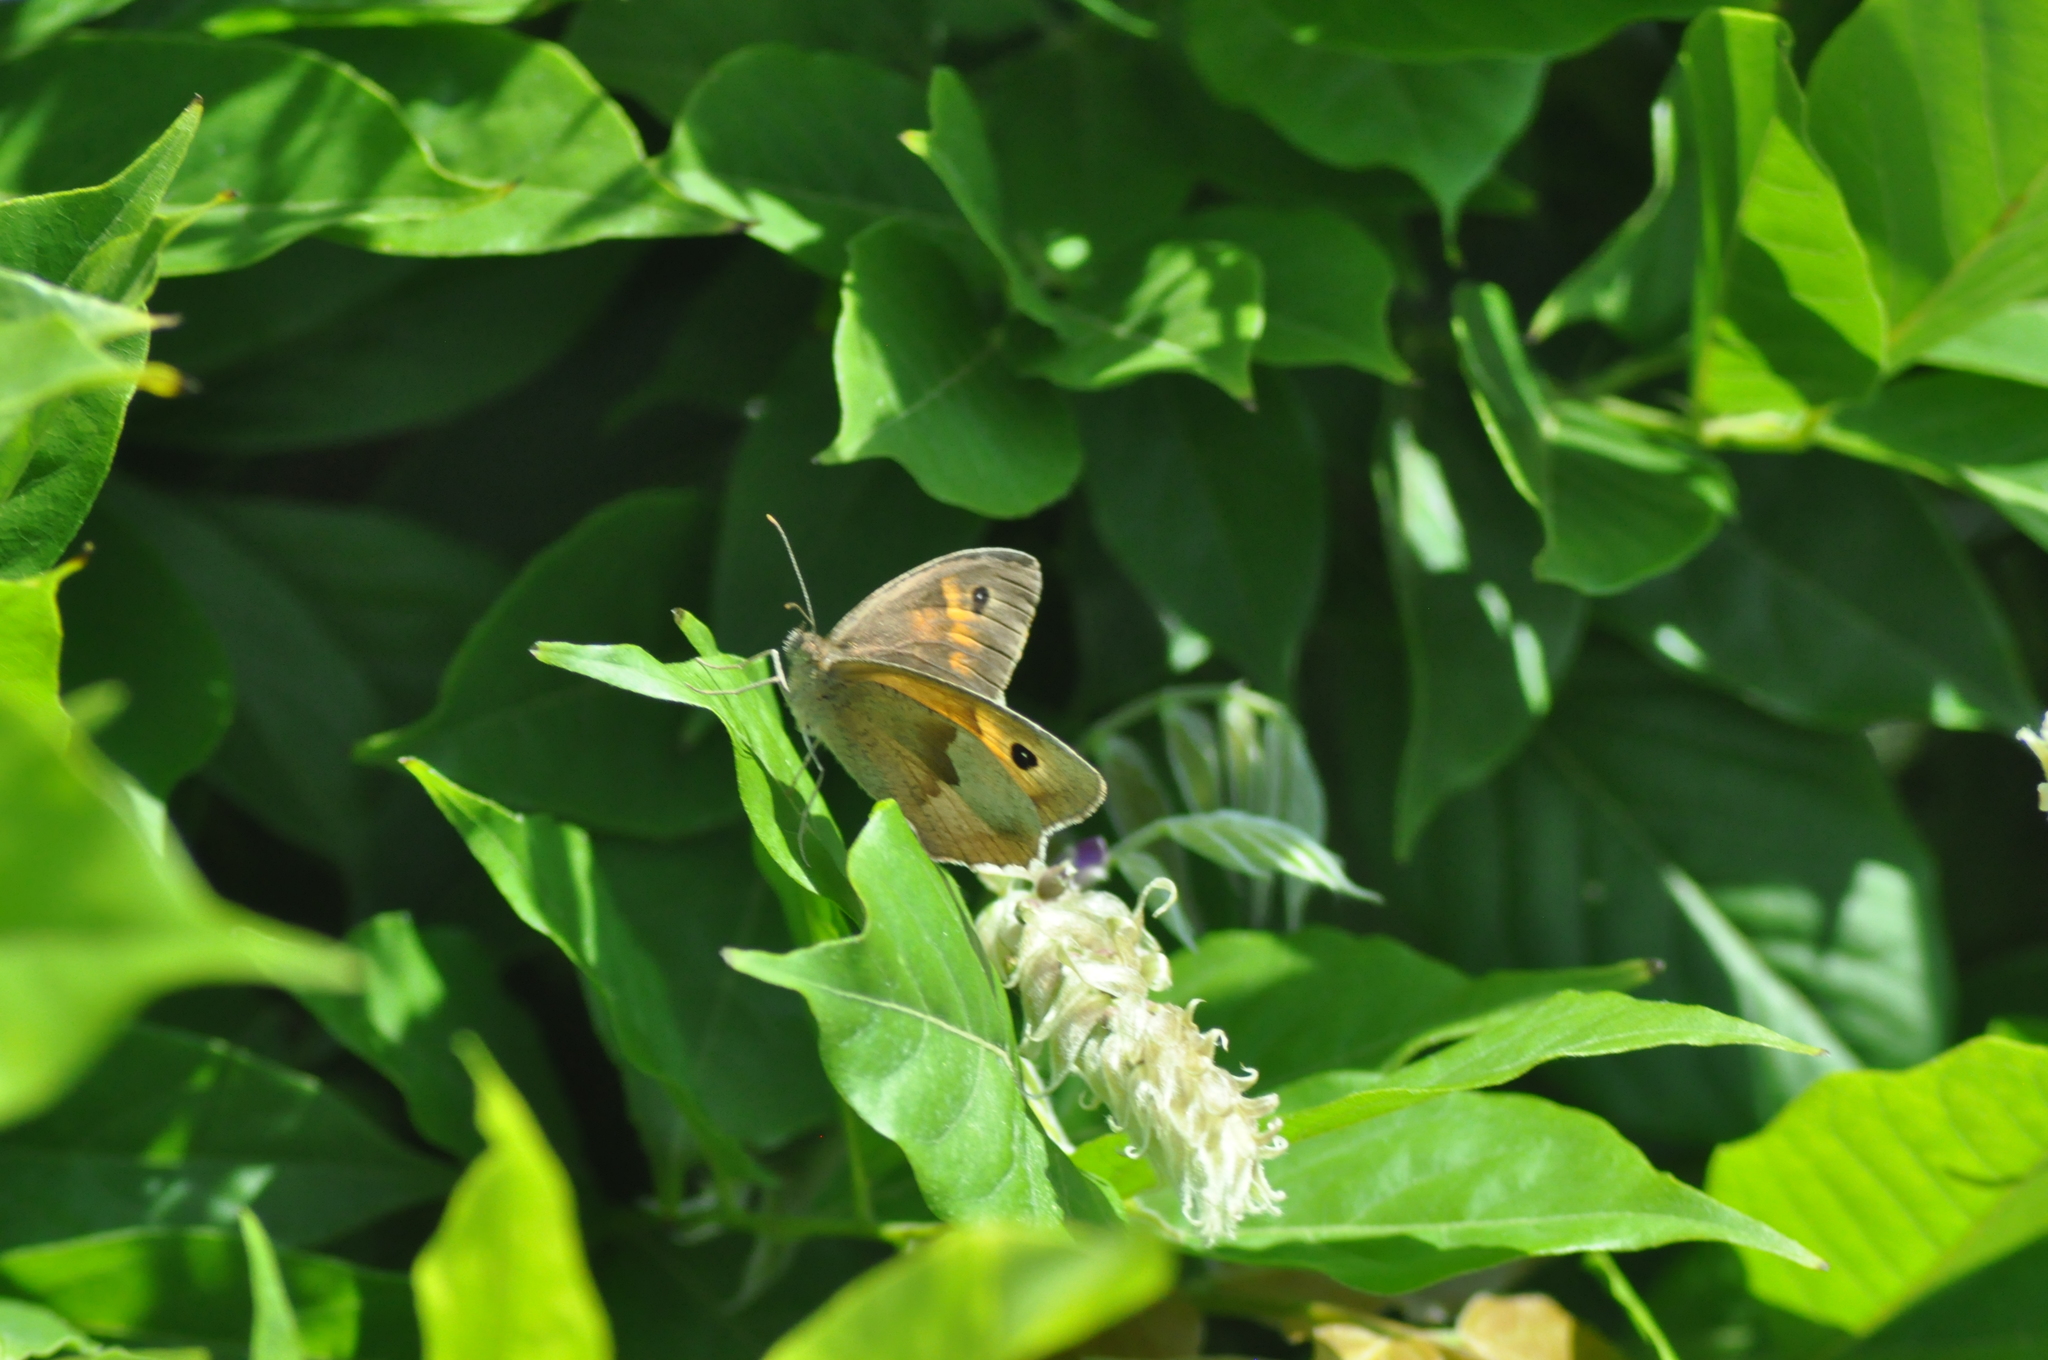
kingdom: Animalia
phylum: Arthropoda
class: Insecta
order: Lepidoptera
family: Nymphalidae
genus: Maniola
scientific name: Maniola jurtina
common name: Meadow brown
